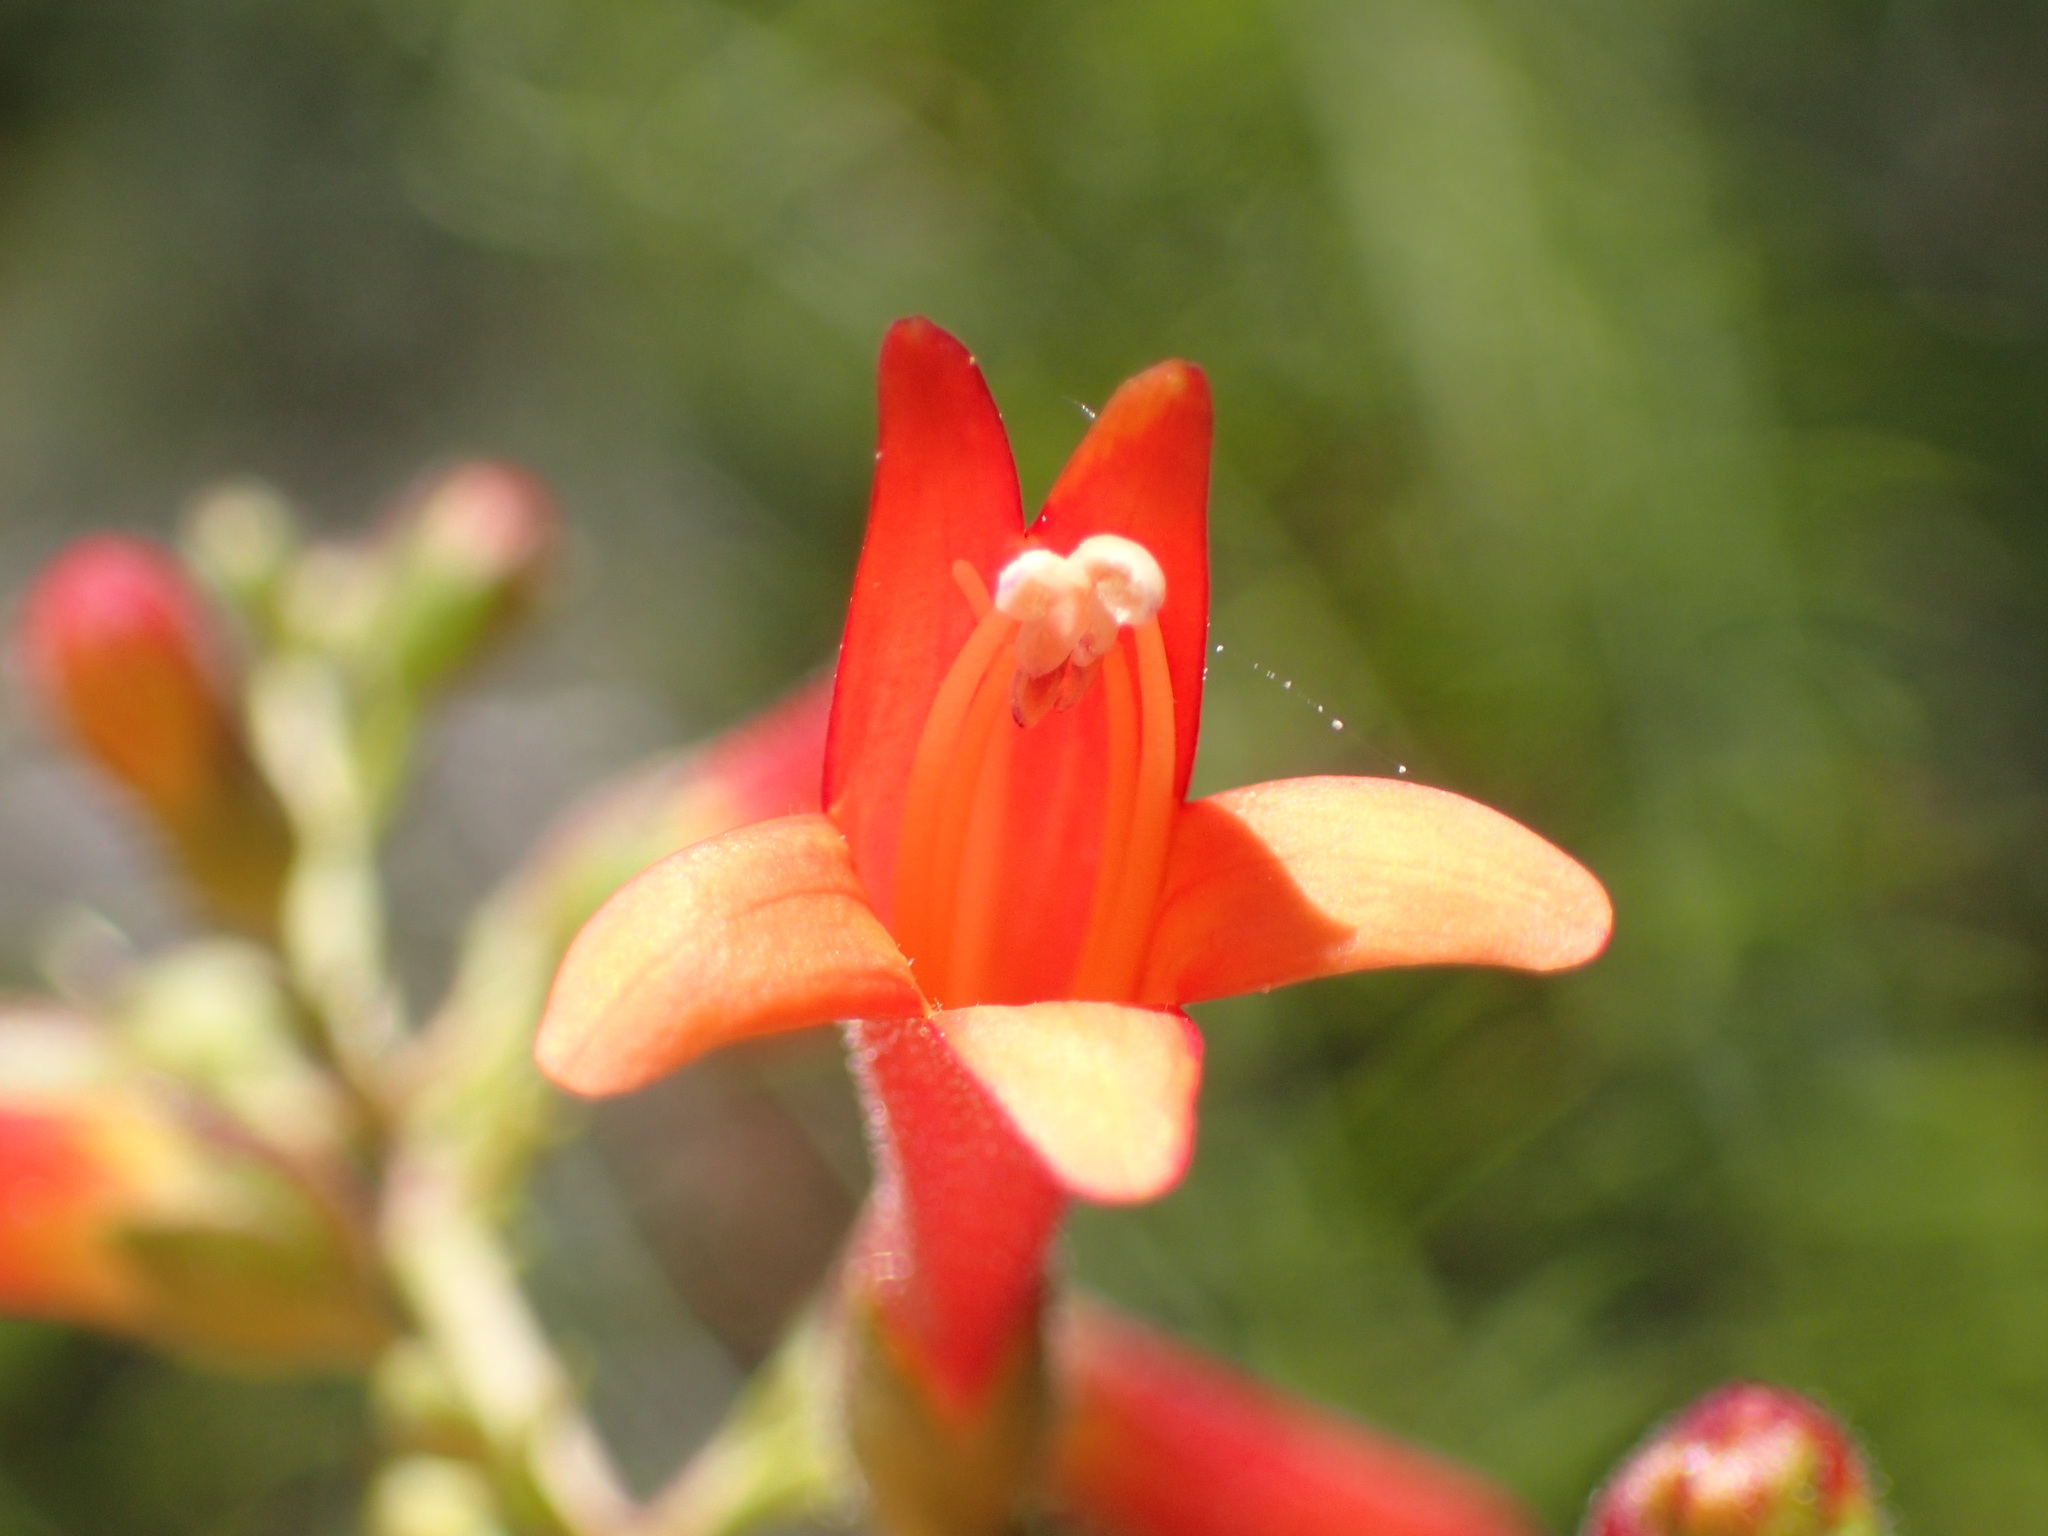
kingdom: Plantae
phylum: Tracheophyta
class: Magnoliopsida
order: Lamiales
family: Plantaginaceae
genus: Keckiella
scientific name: Keckiella ternata
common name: Scarlet keckiella
